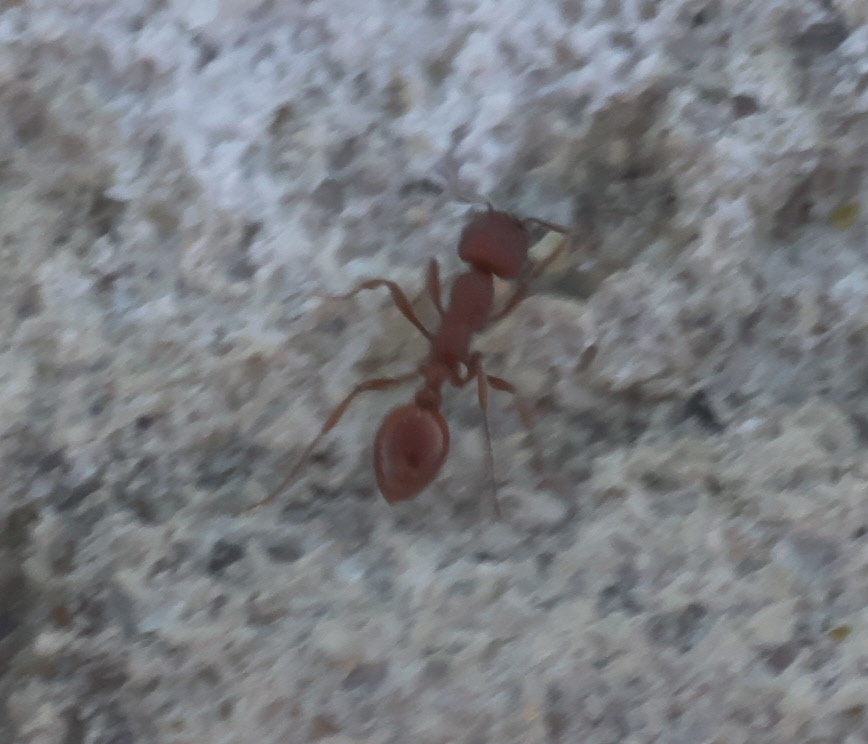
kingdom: Animalia
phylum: Arthropoda
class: Insecta
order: Hymenoptera
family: Formicidae
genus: Manica
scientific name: Manica invidia
